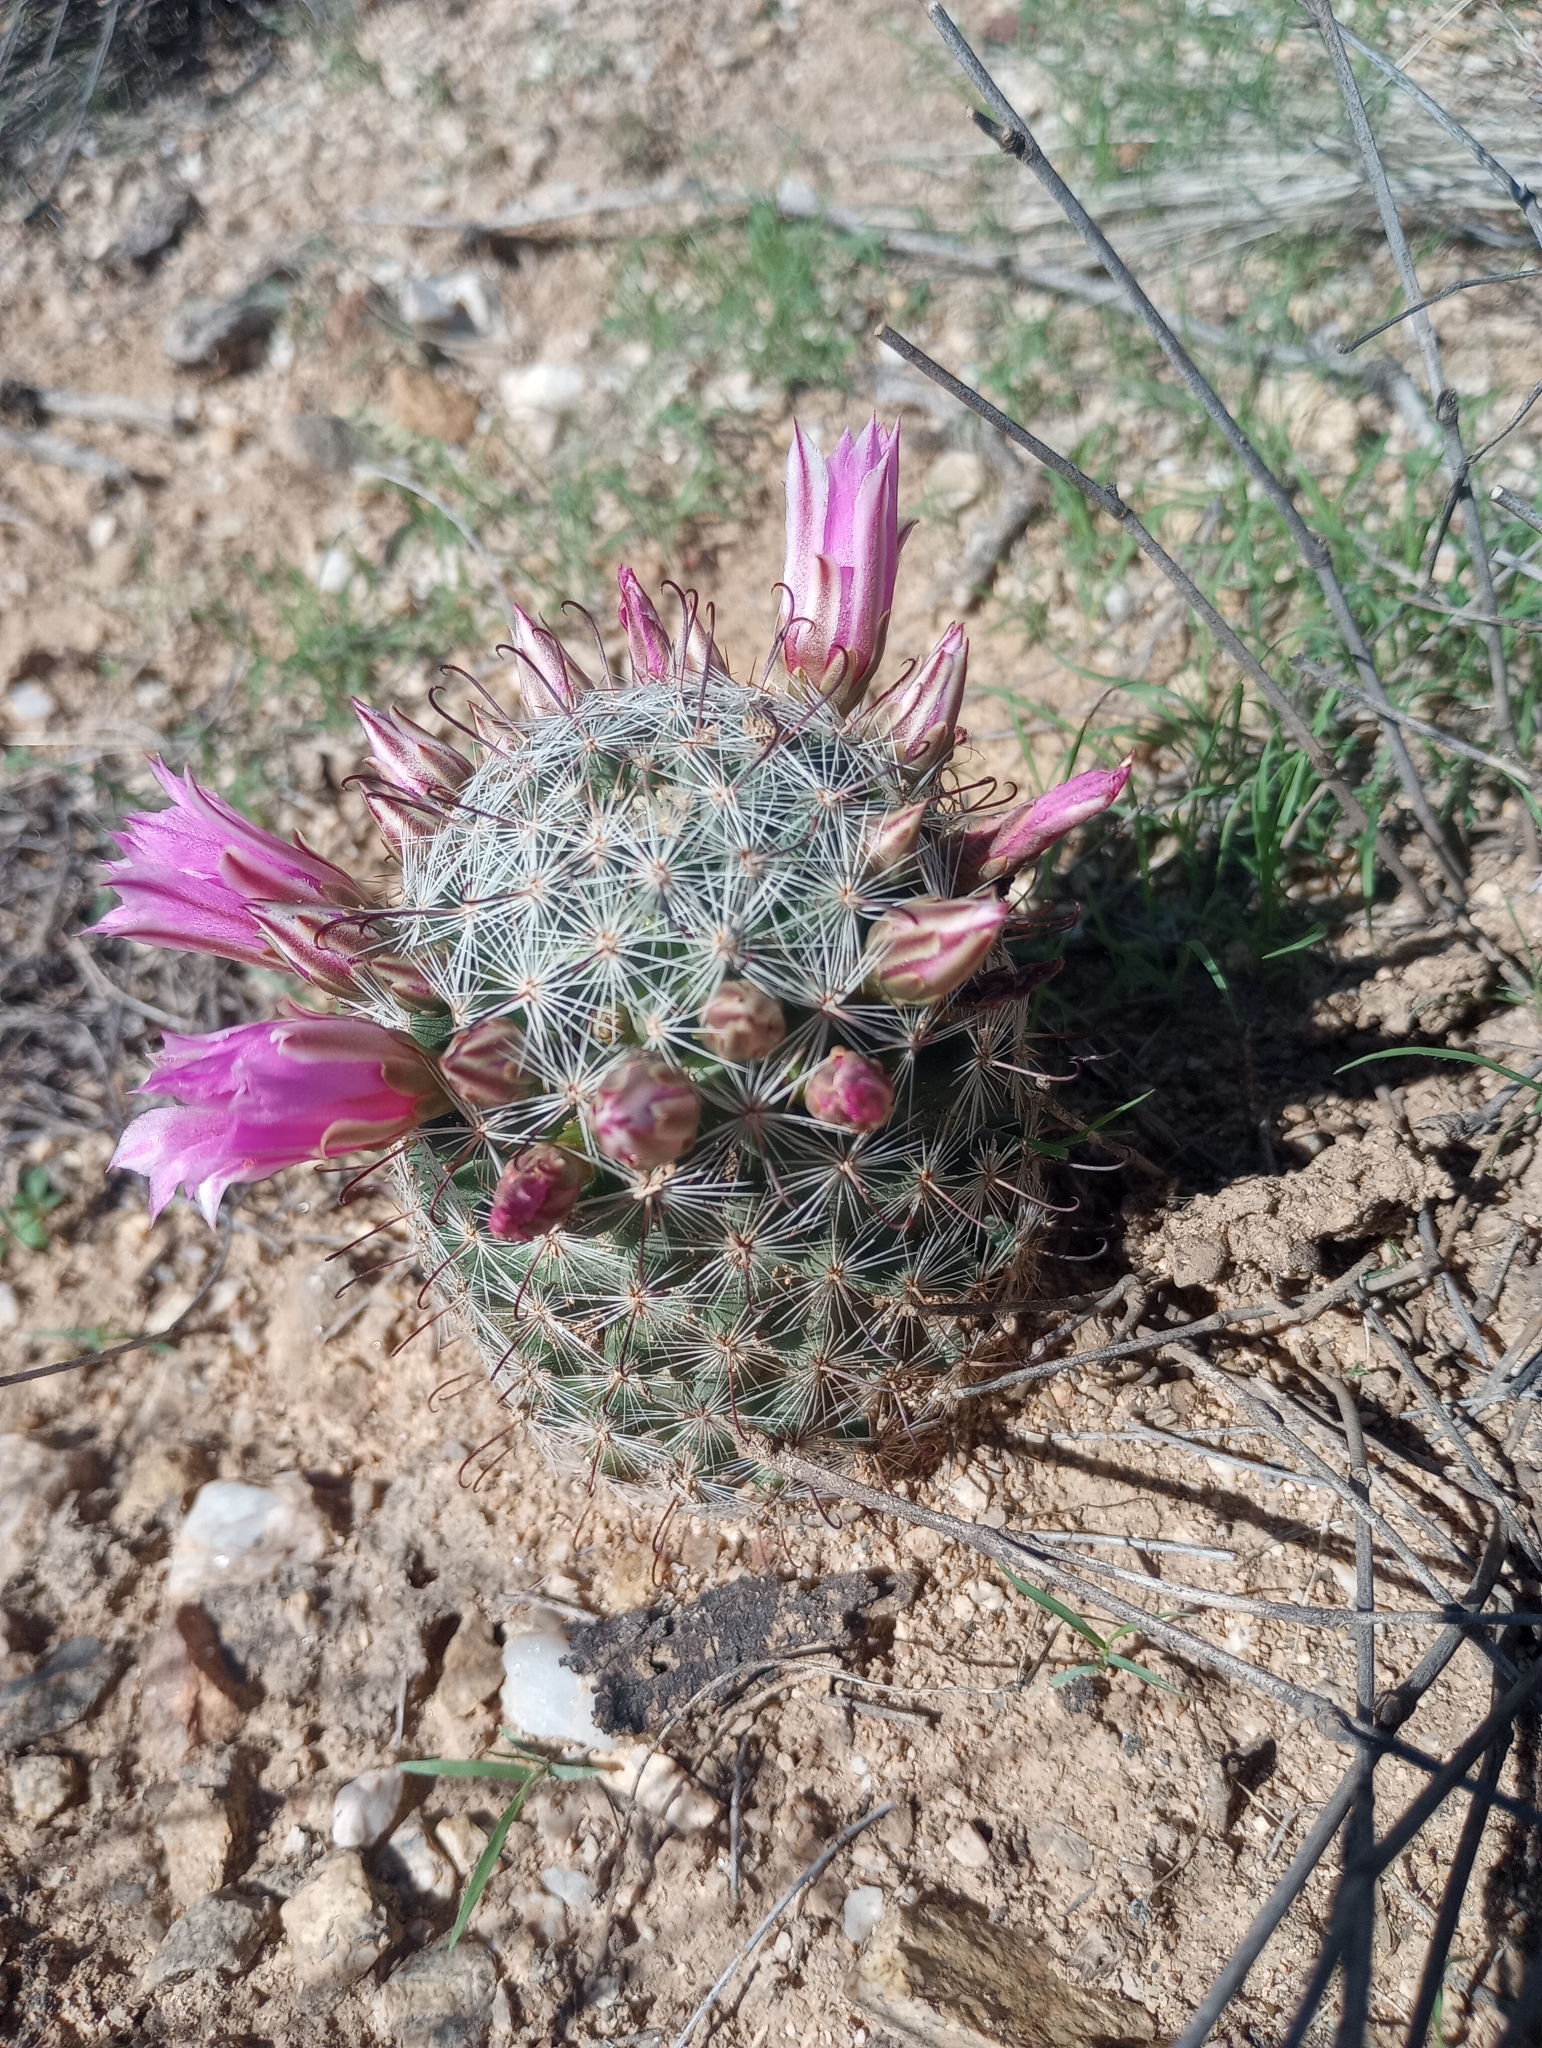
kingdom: Plantae
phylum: Tracheophyta
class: Magnoliopsida
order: Caryophyllales
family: Cactaceae
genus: Cochemiea
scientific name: Cochemiea grahamii
